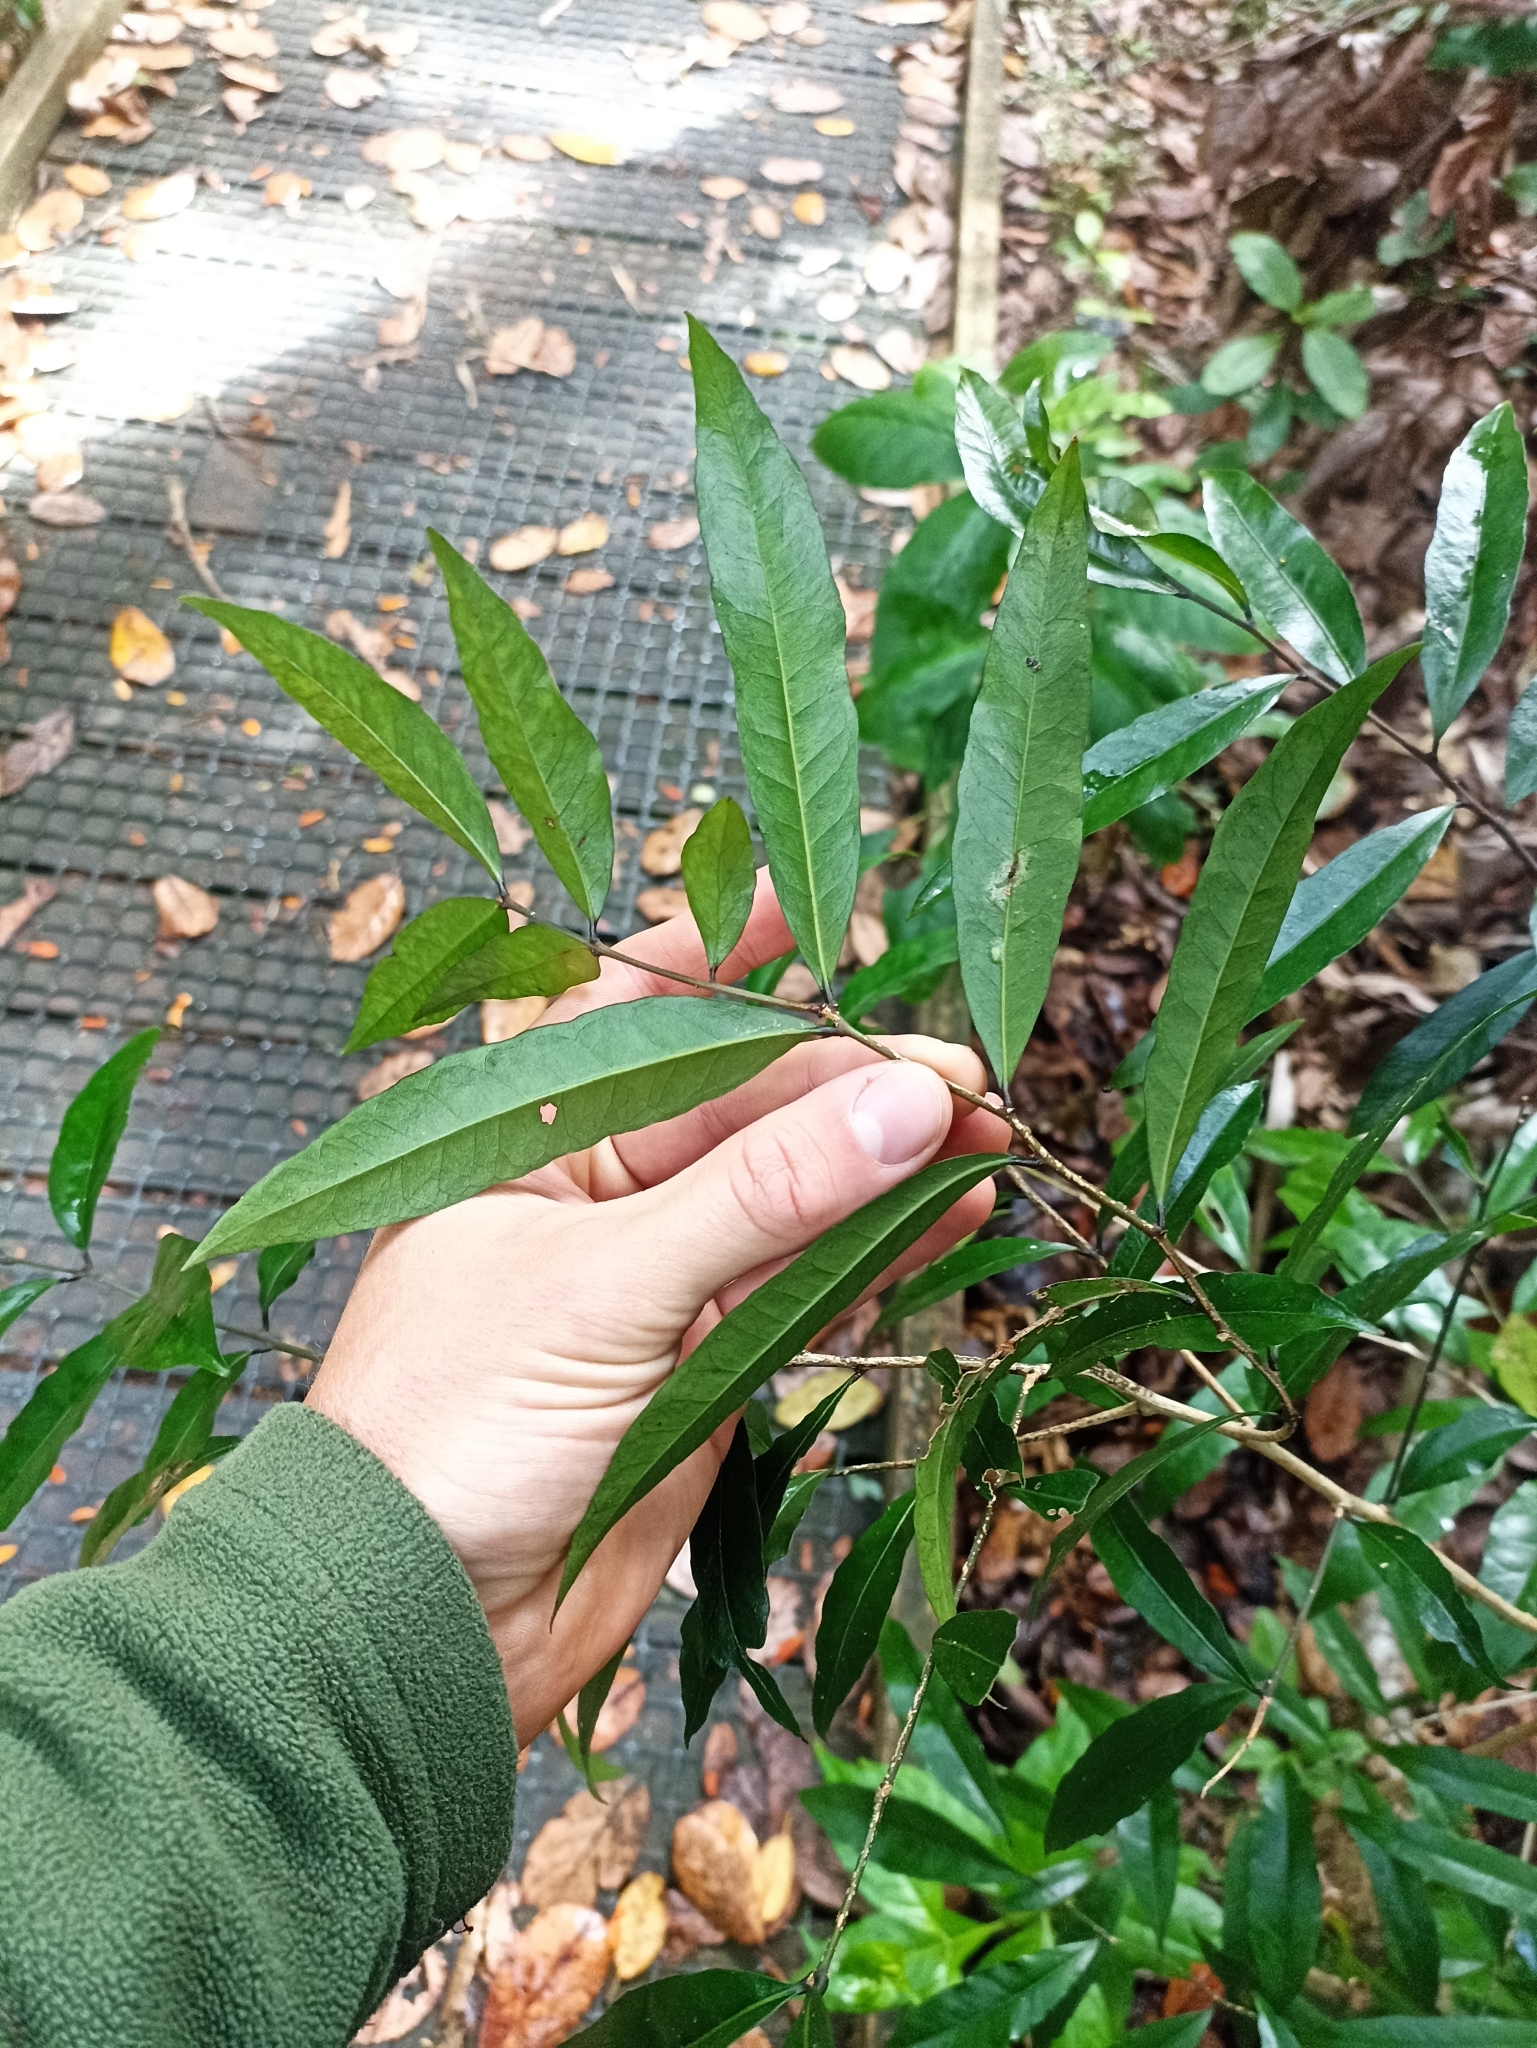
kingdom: Plantae
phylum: Tracheophyta
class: Magnoliopsida
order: Santalales
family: Nanodeaceae
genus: Mida
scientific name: Mida salicifolia
